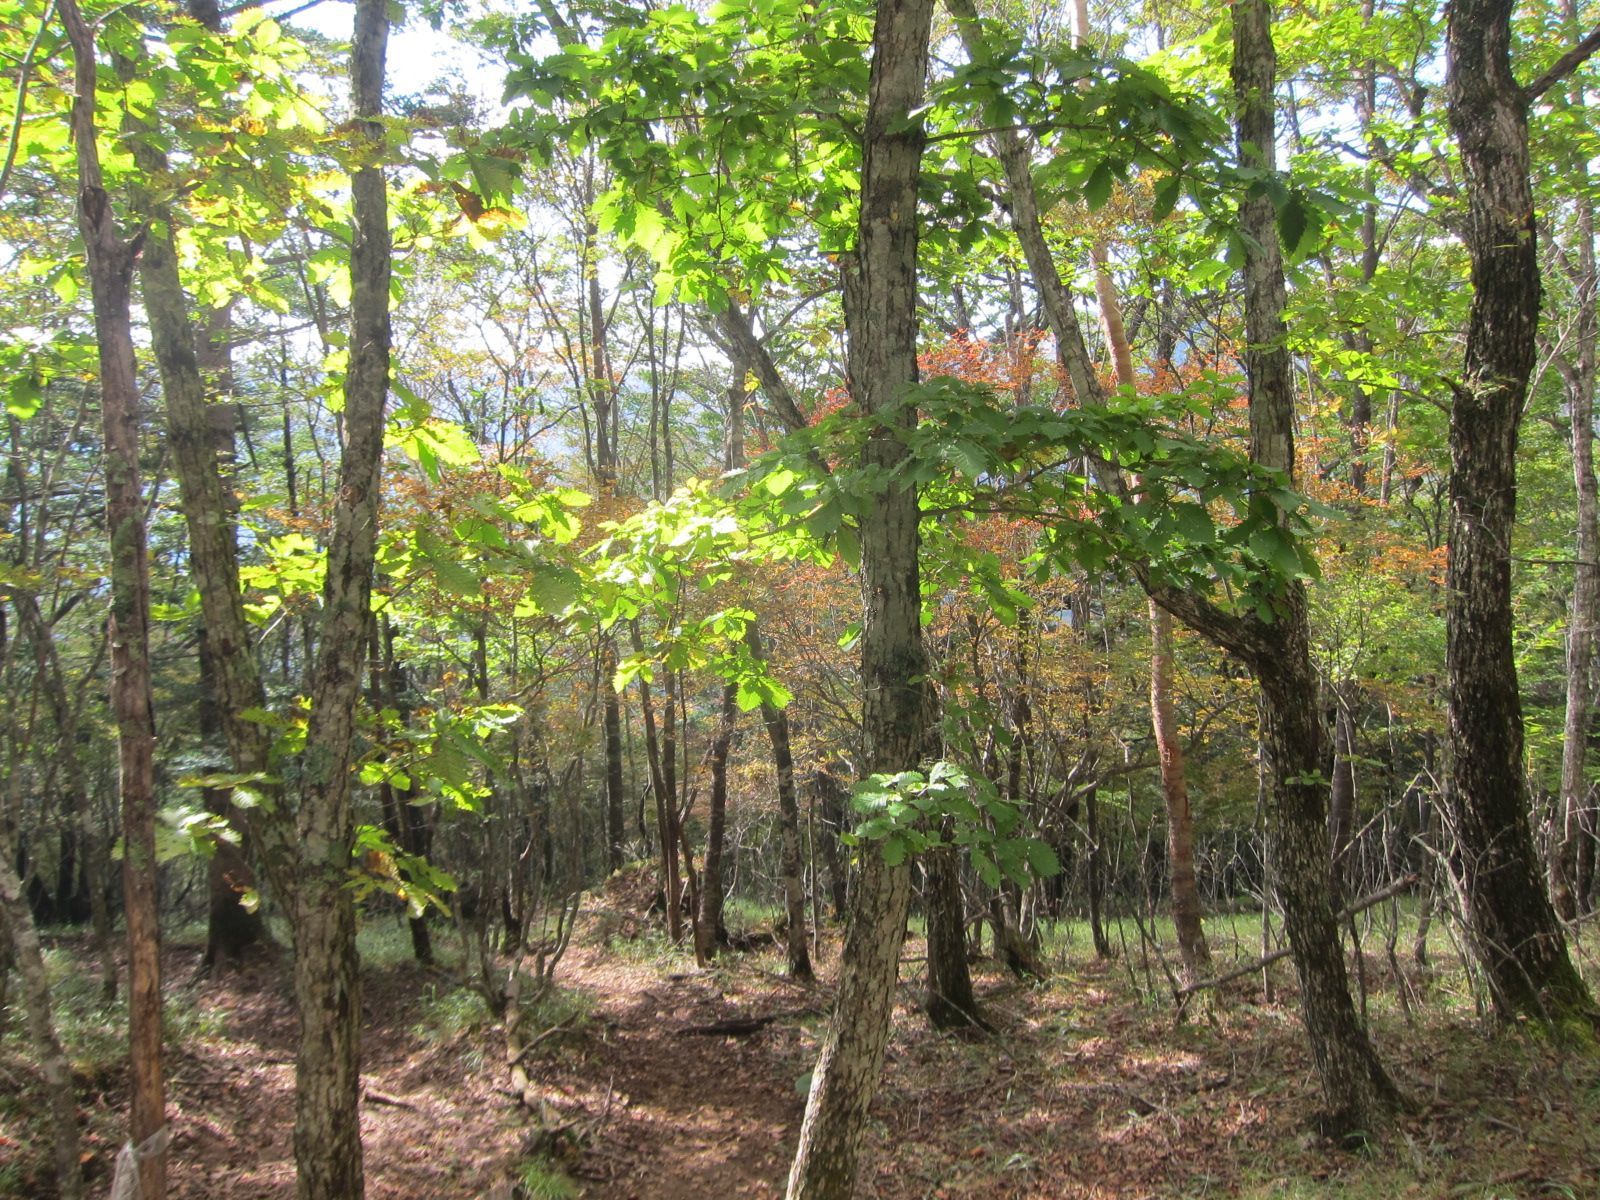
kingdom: Plantae
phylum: Tracheophyta
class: Magnoliopsida
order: Fagales
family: Fagaceae
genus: Quercus
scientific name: Quercus crispula
